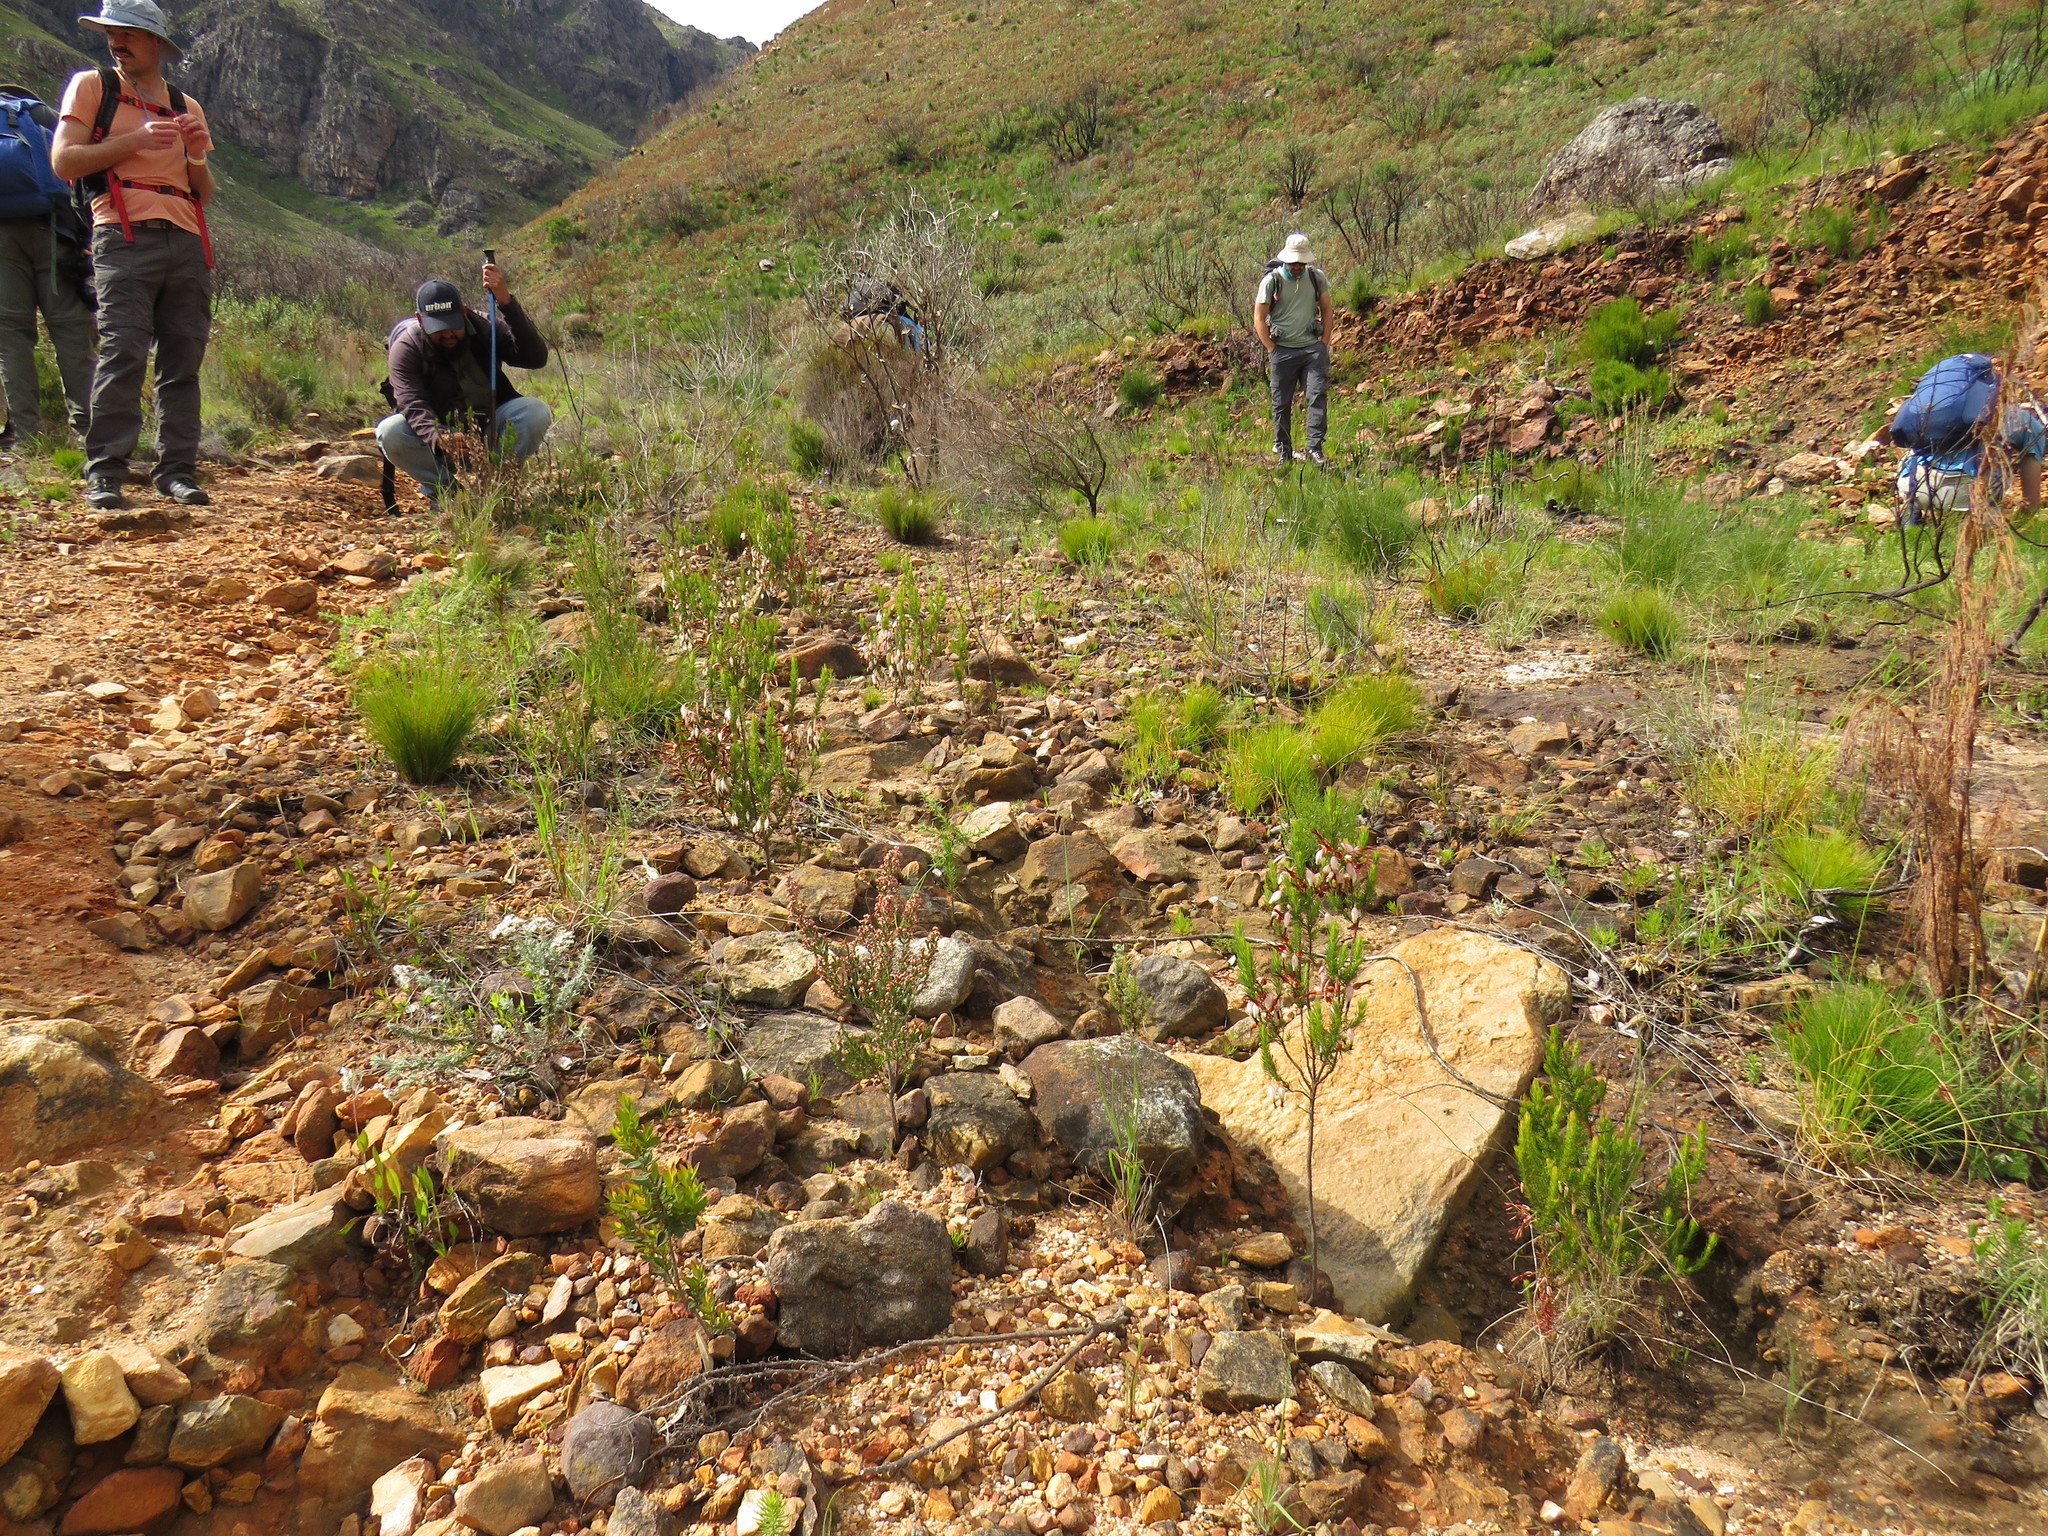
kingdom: Plantae
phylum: Tracheophyta
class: Magnoliopsida
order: Ericales
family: Ericaceae
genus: Erica
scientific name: Erica plukenetii
